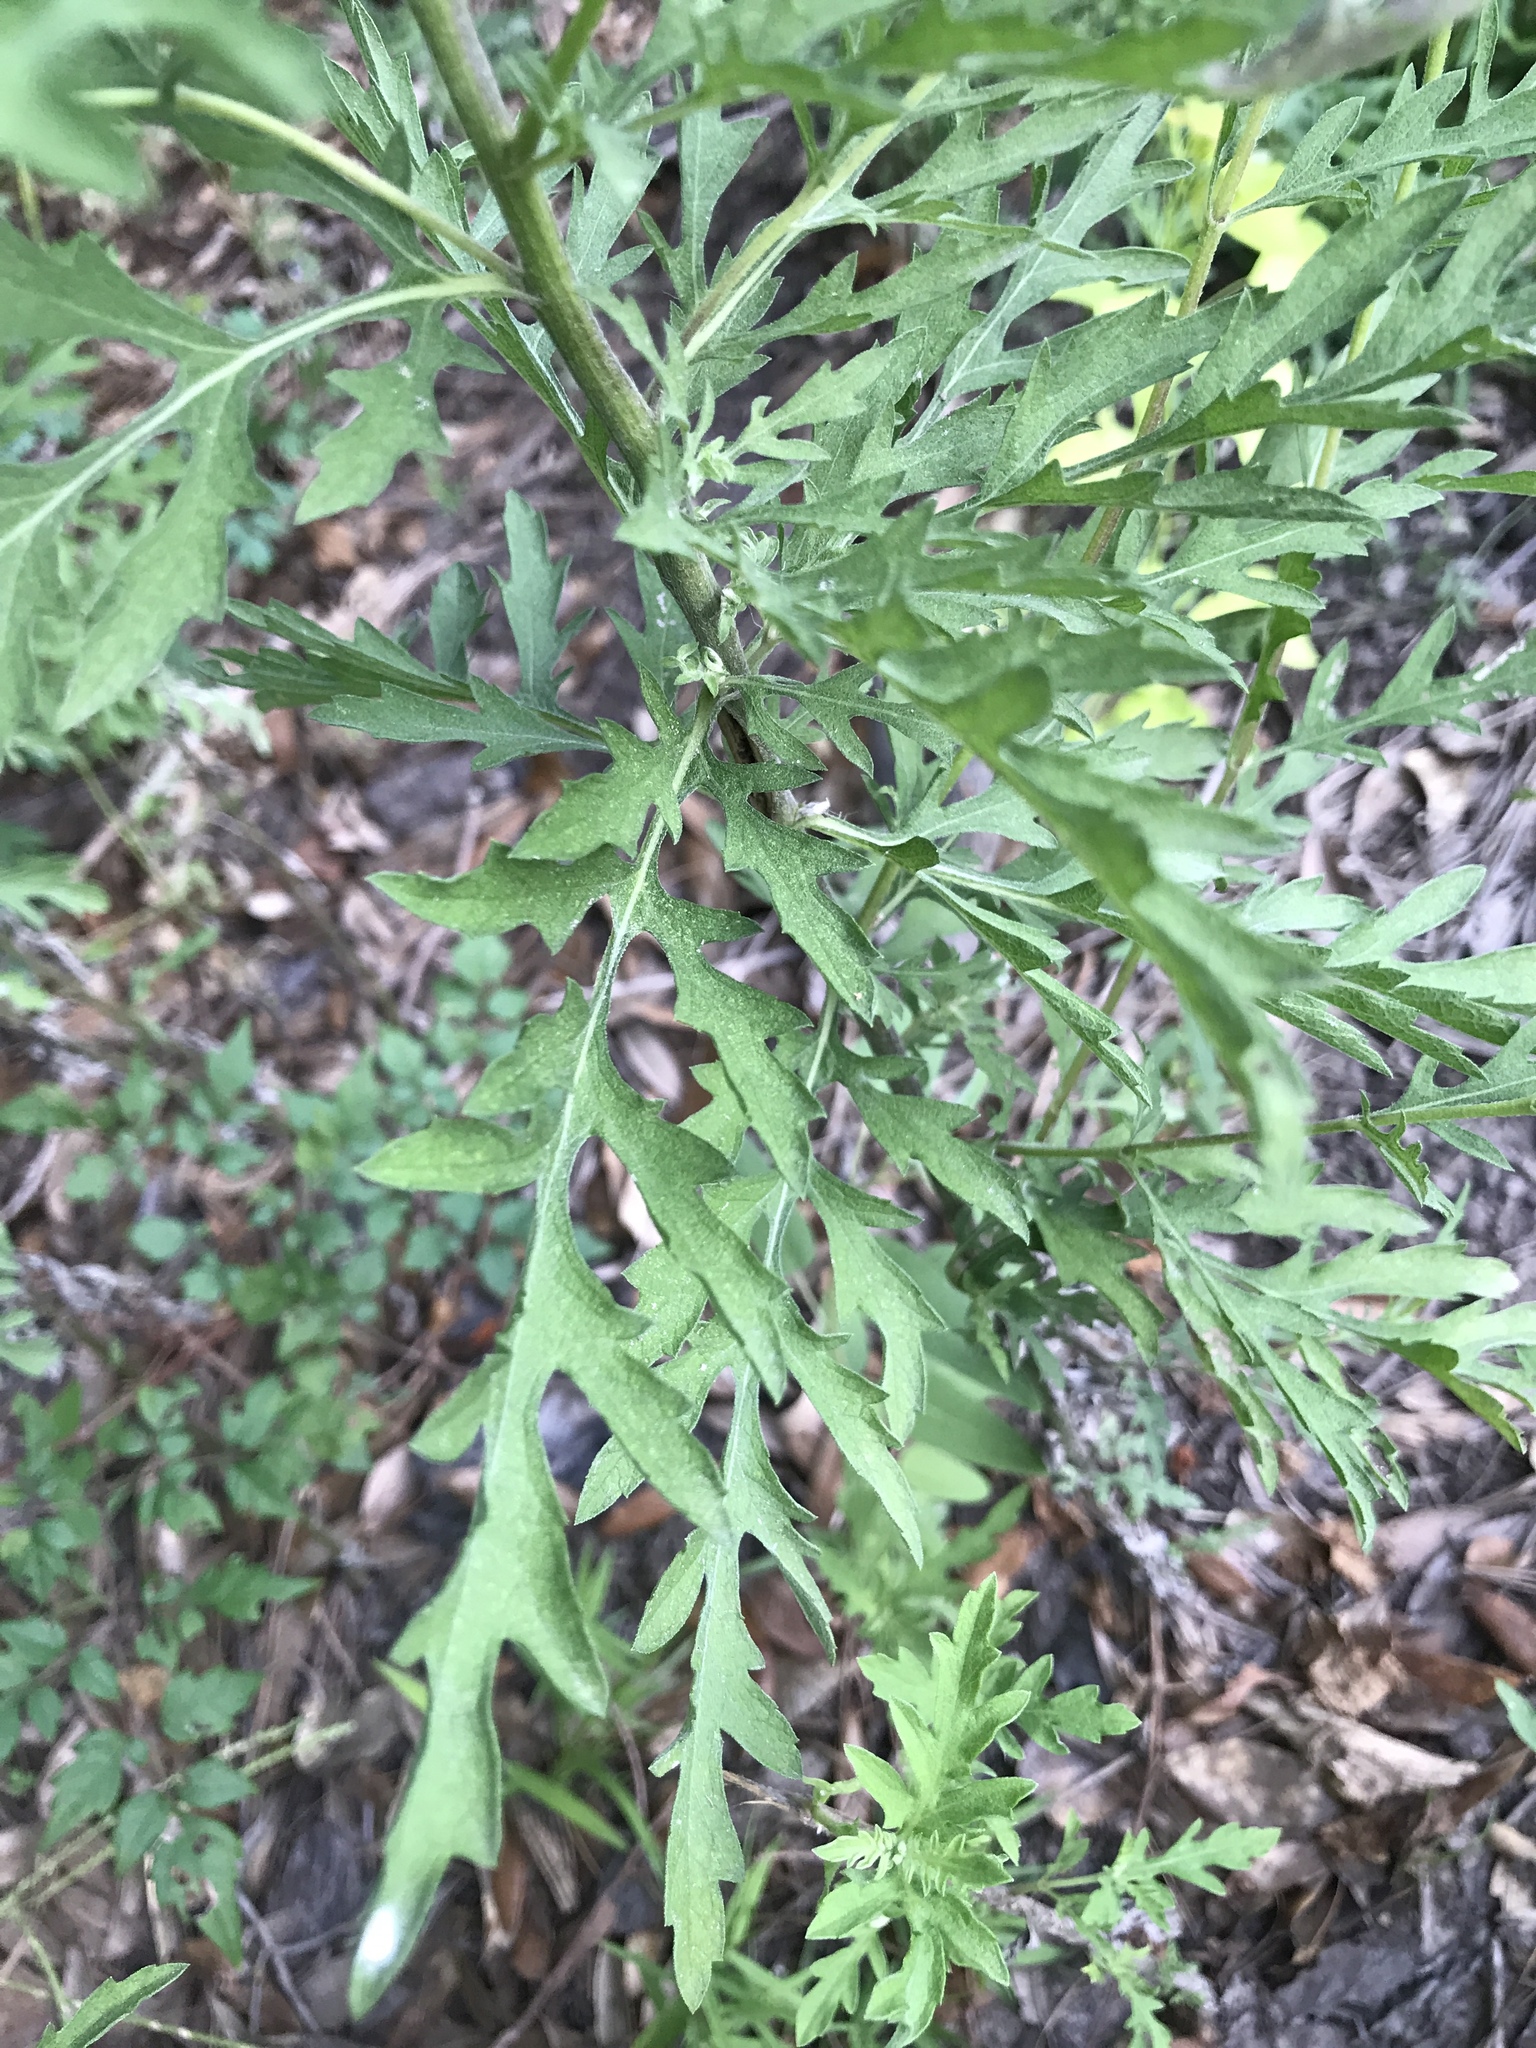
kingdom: Plantae
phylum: Tracheophyta
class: Magnoliopsida
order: Asterales
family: Asteraceae
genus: Ambrosia
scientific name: Ambrosia psilostachya
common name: Perennial ragweed
